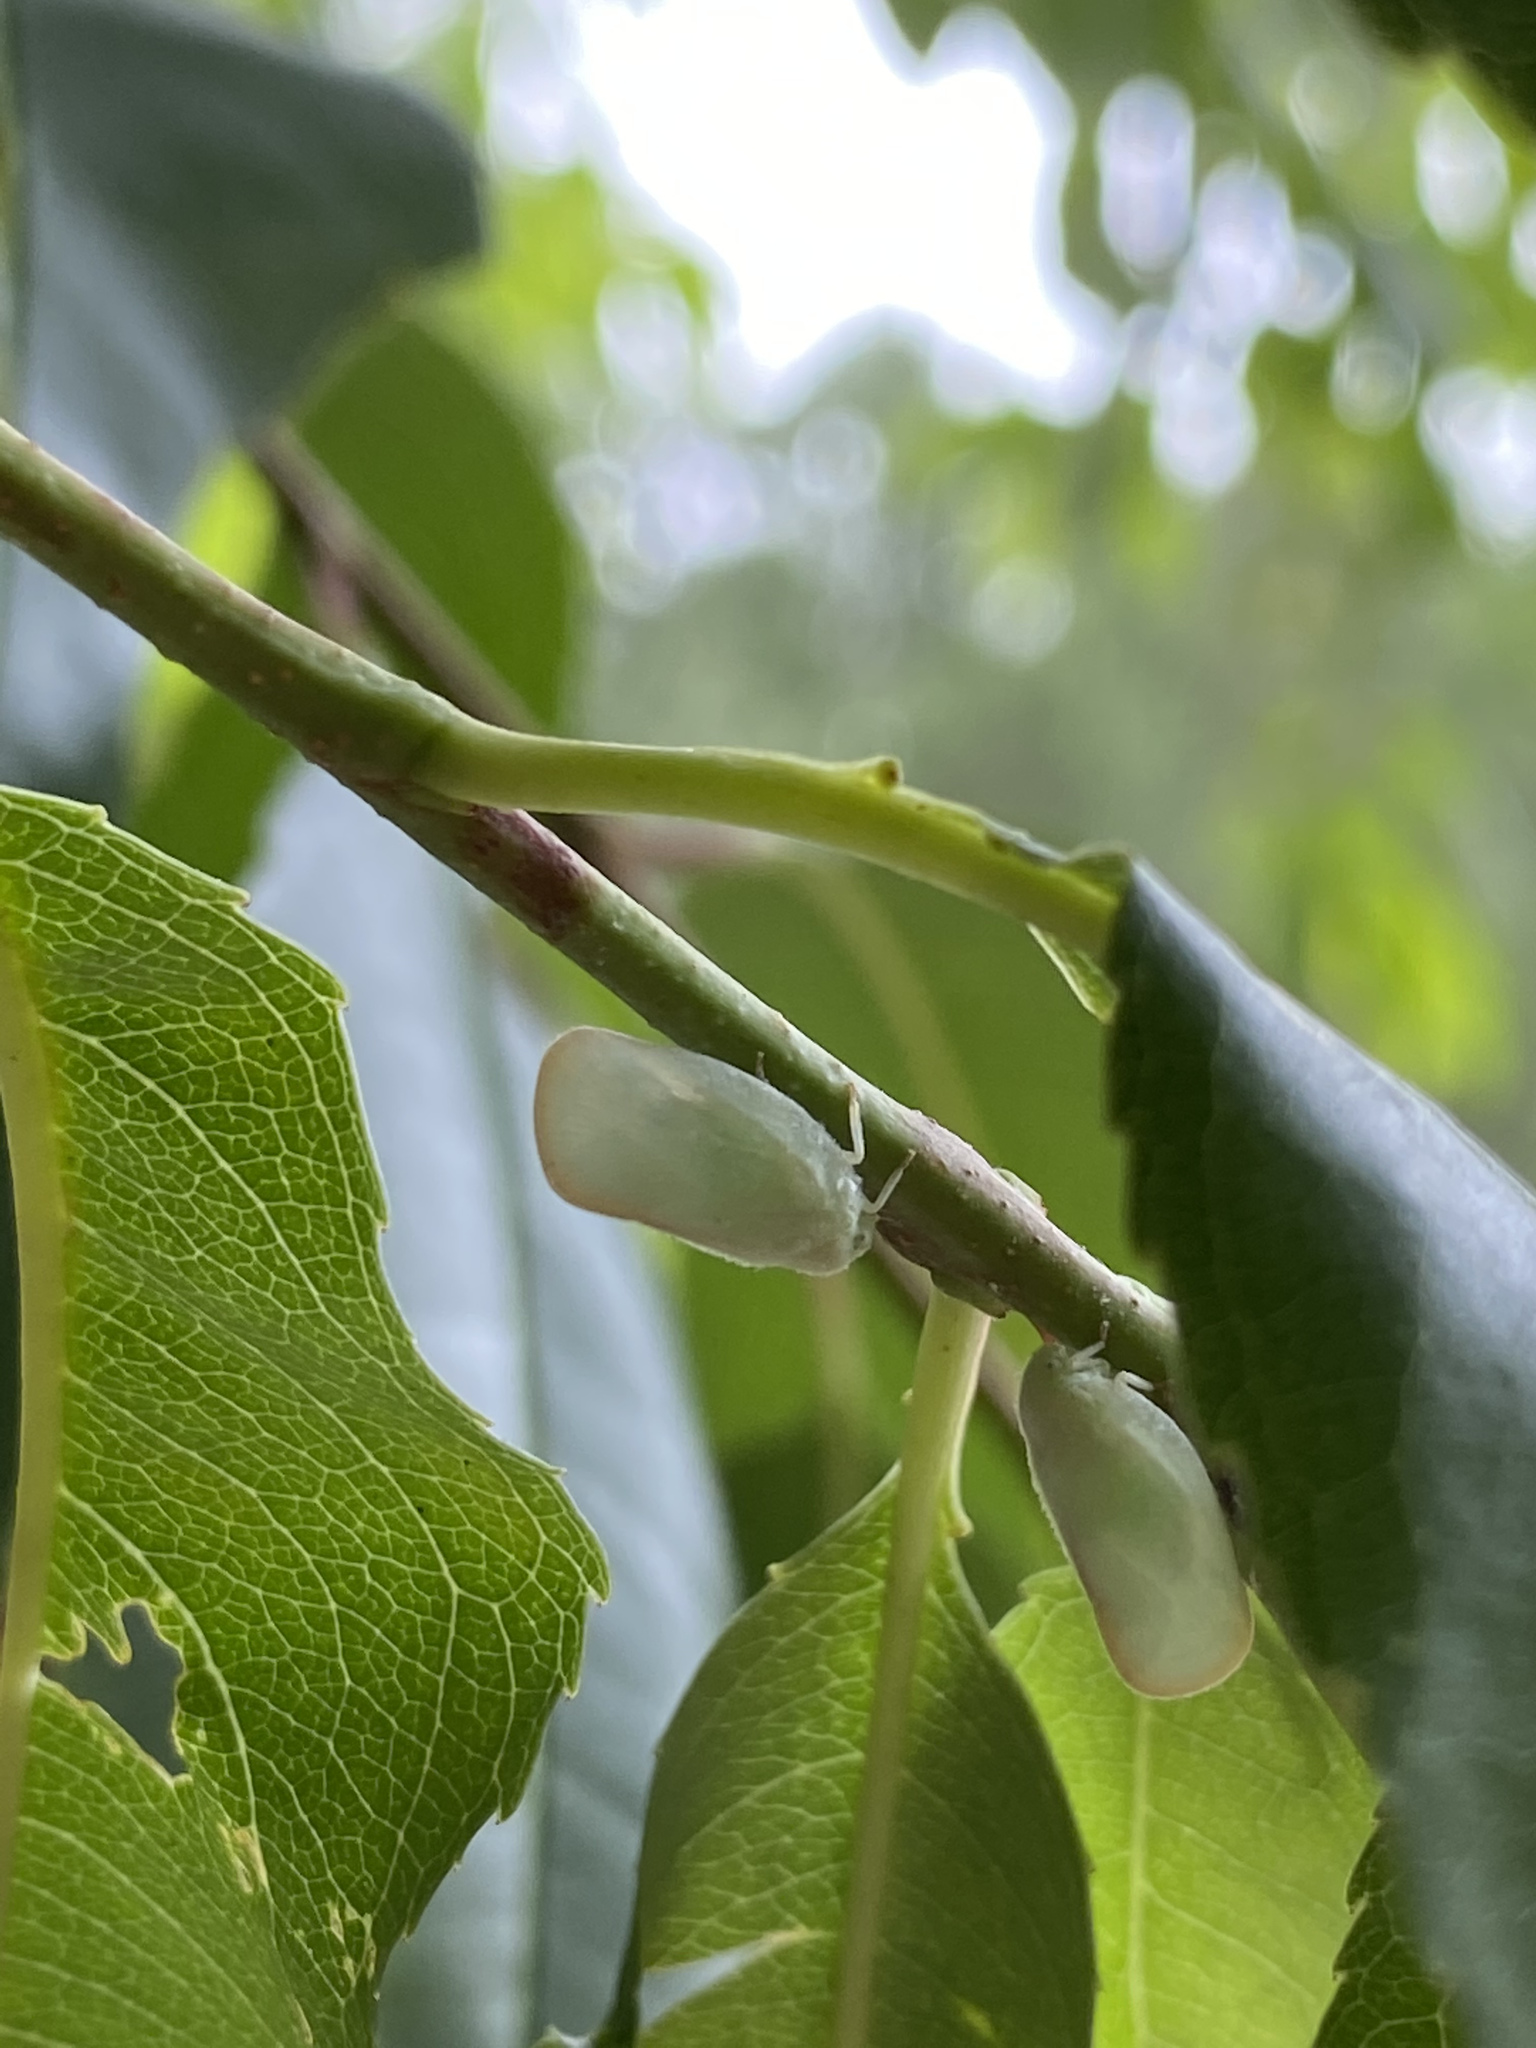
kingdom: Animalia
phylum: Arthropoda
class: Insecta
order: Hemiptera
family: Flatidae
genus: Ormenoides
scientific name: Ormenoides venusta
